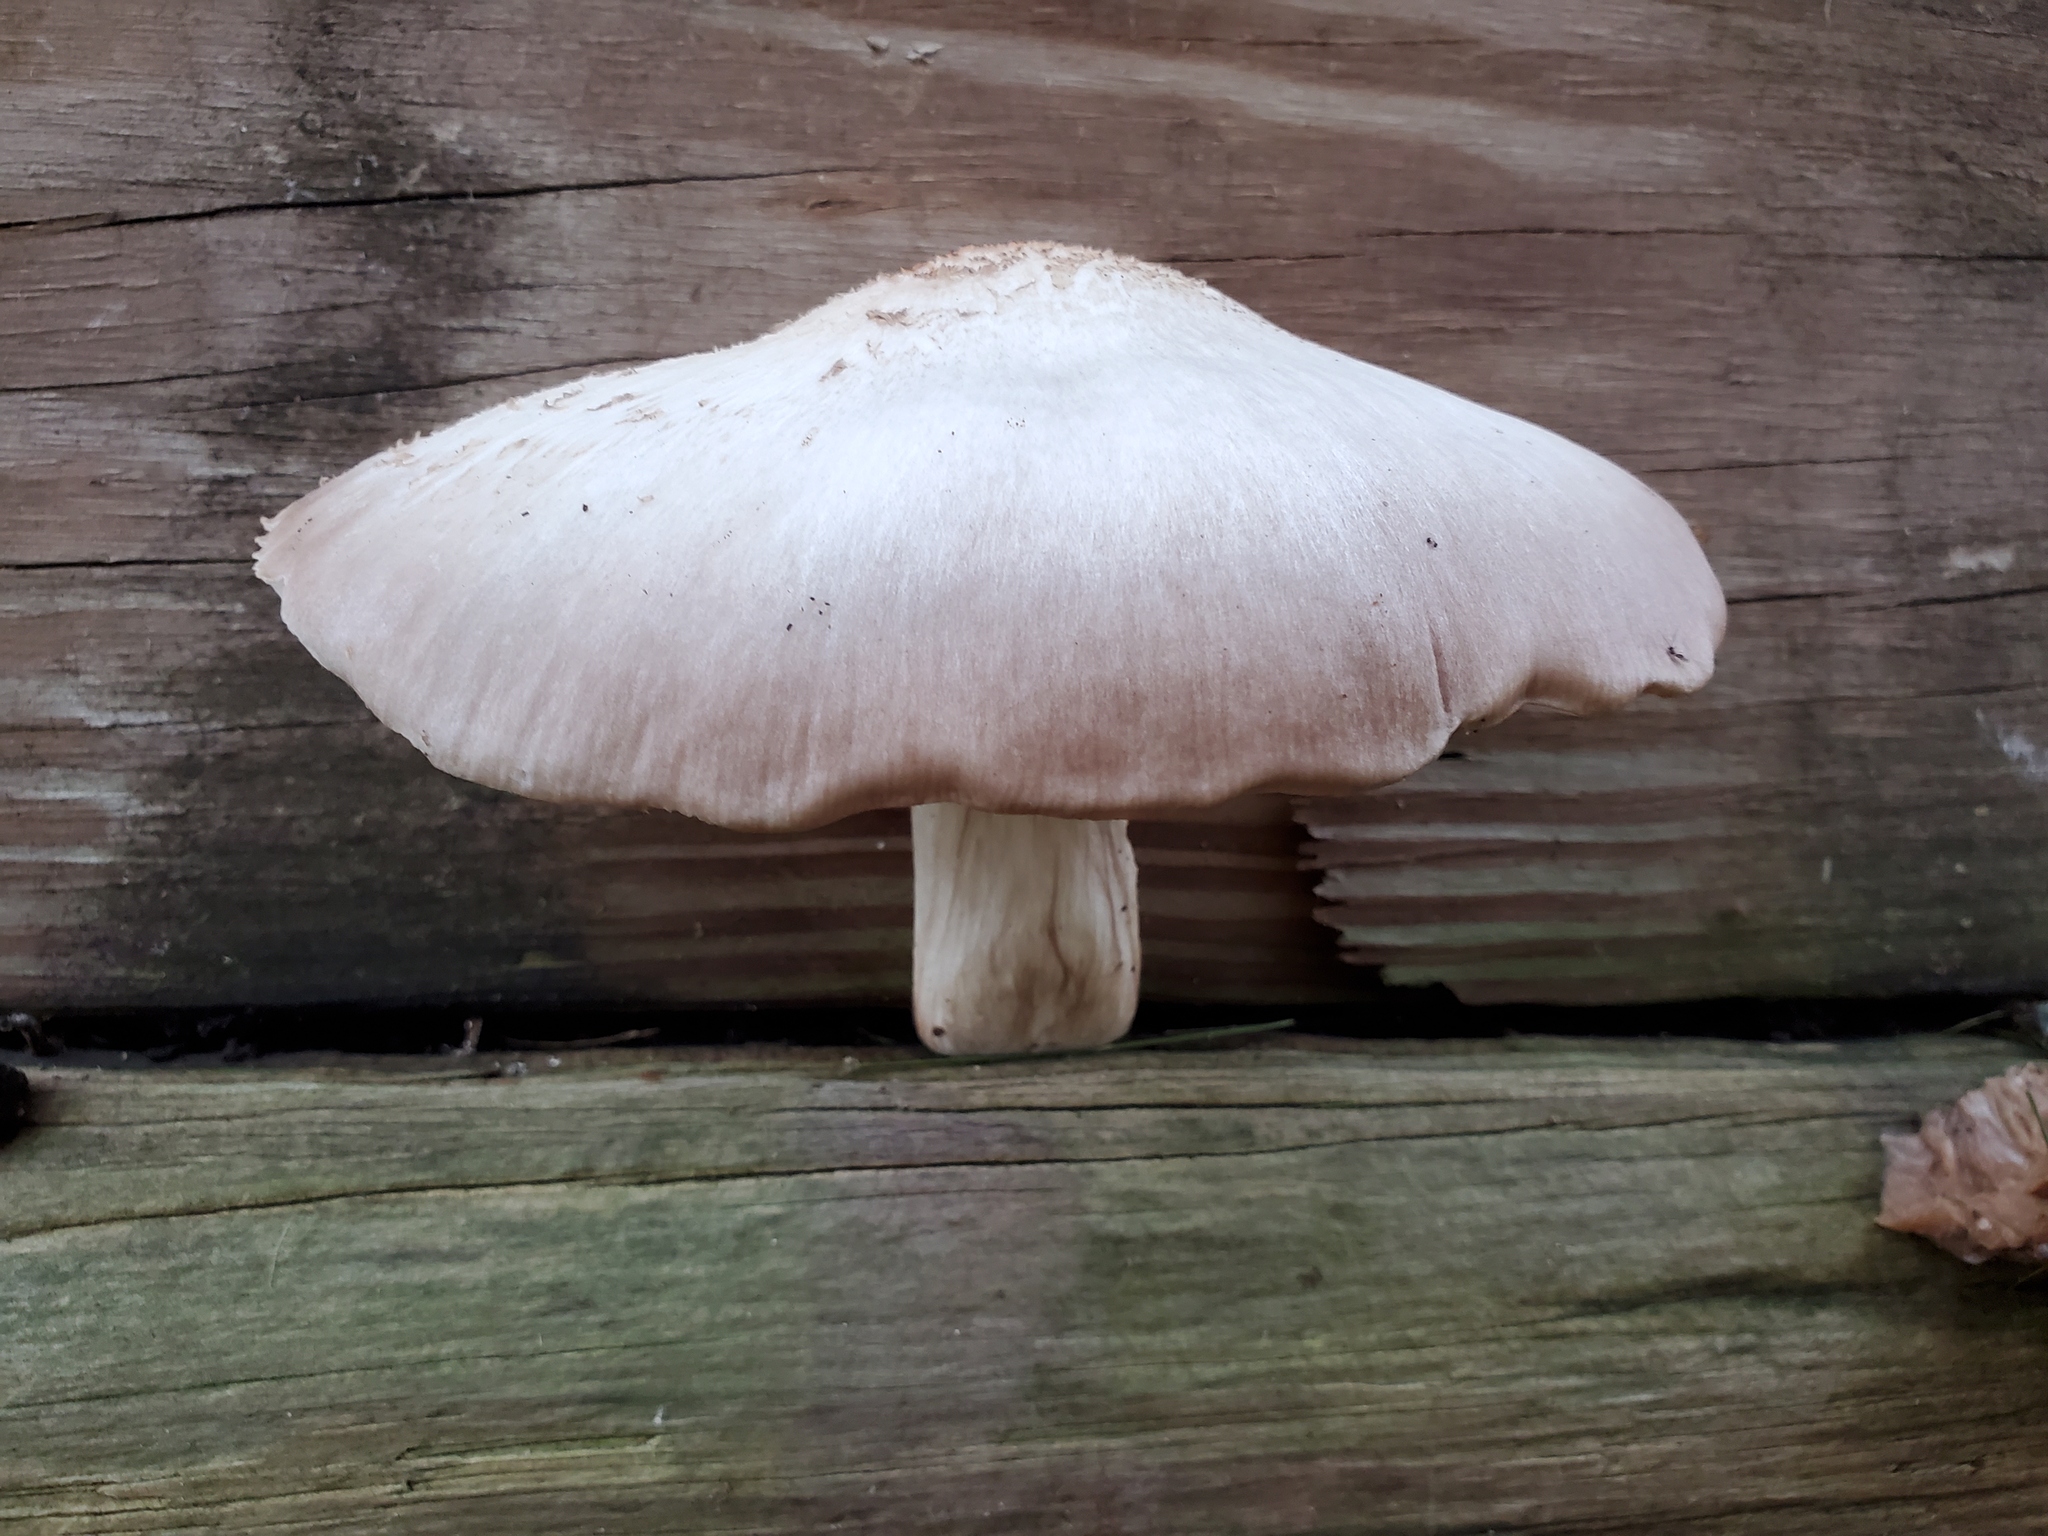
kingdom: Fungi
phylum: Basidiomycota
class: Agaricomycetes
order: Agaricales
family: Pluteaceae
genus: Pluteus
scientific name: Pluteus petasatus
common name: Scaly shield
